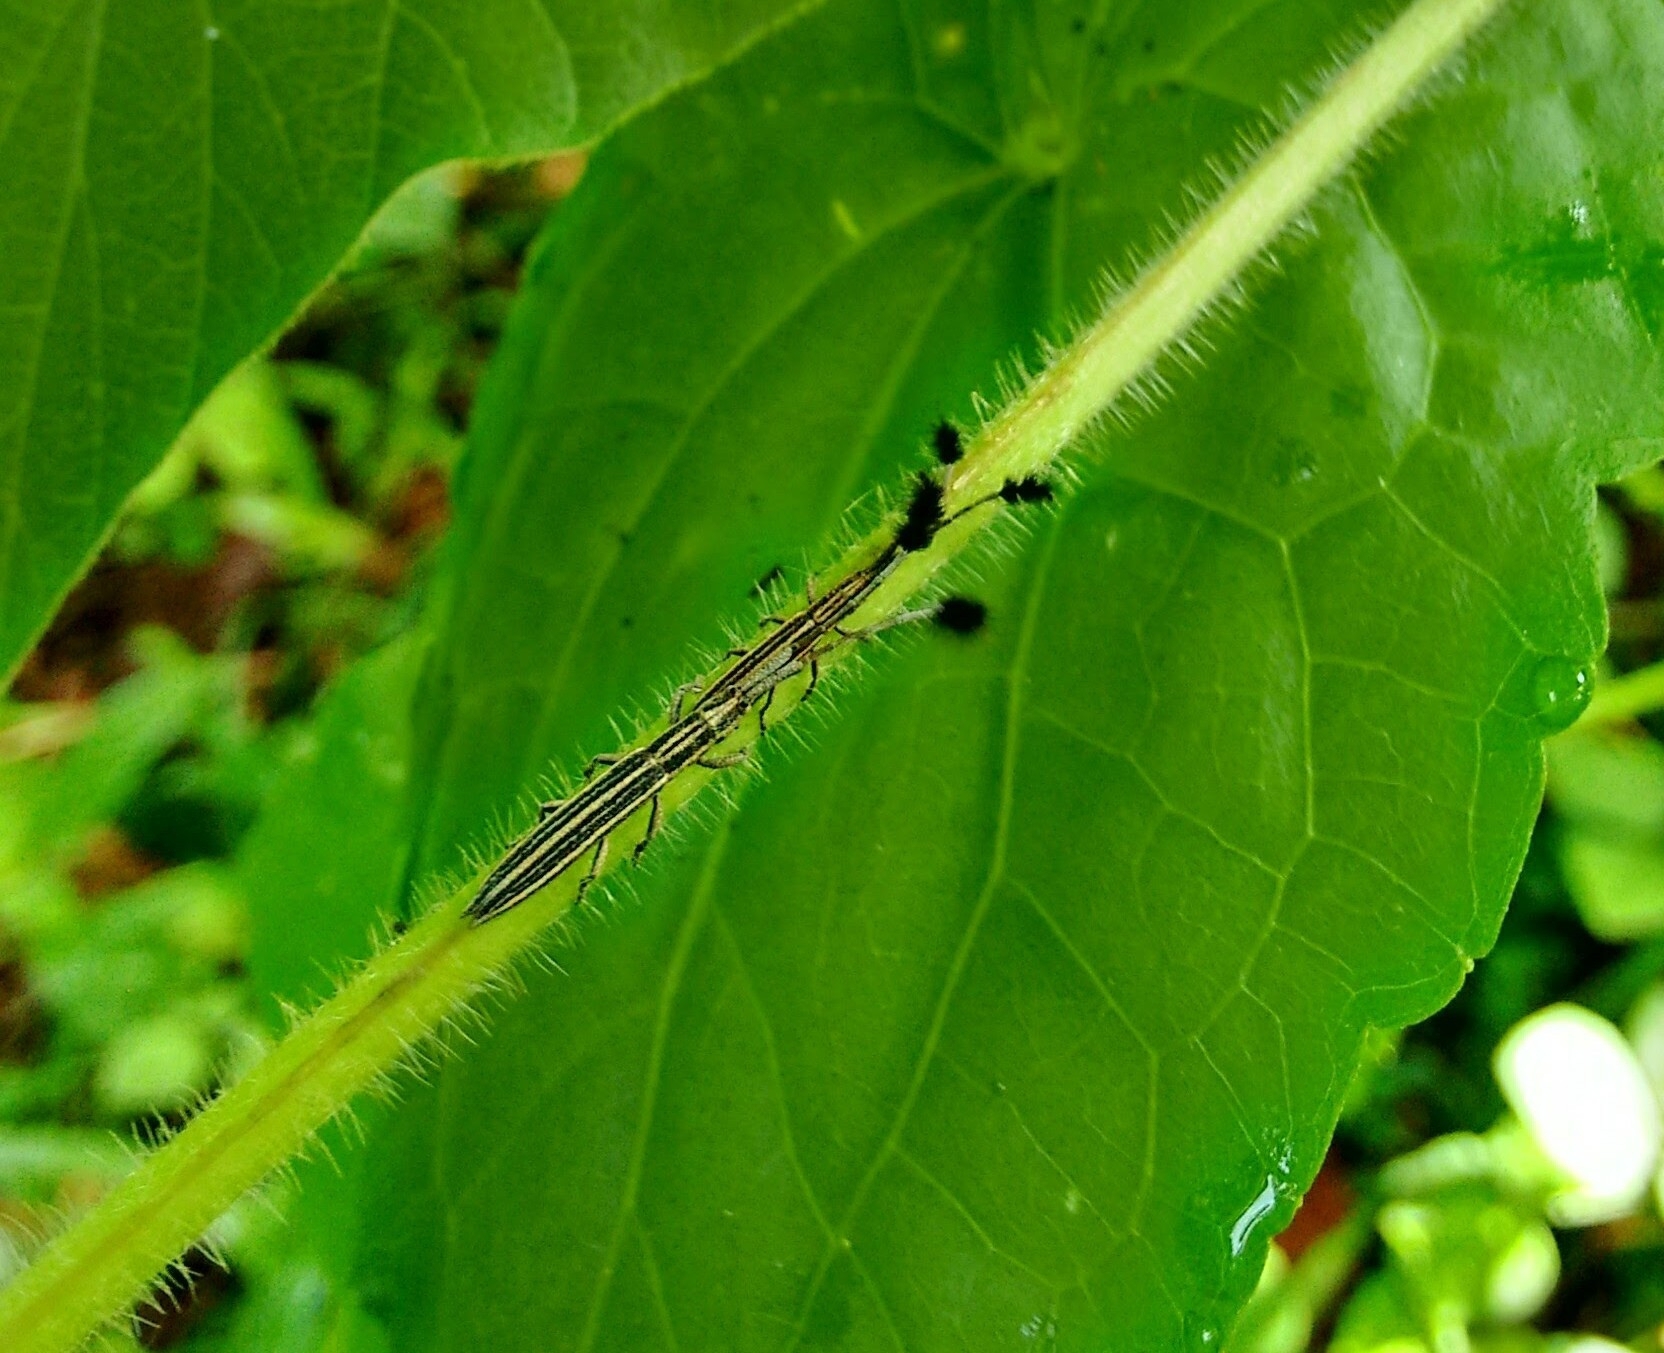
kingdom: Animalia
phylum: Arthropoda
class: Insecta
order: Coleoptera
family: Cerambycidae
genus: Eucomatocera
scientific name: Eucomatocera vittata
